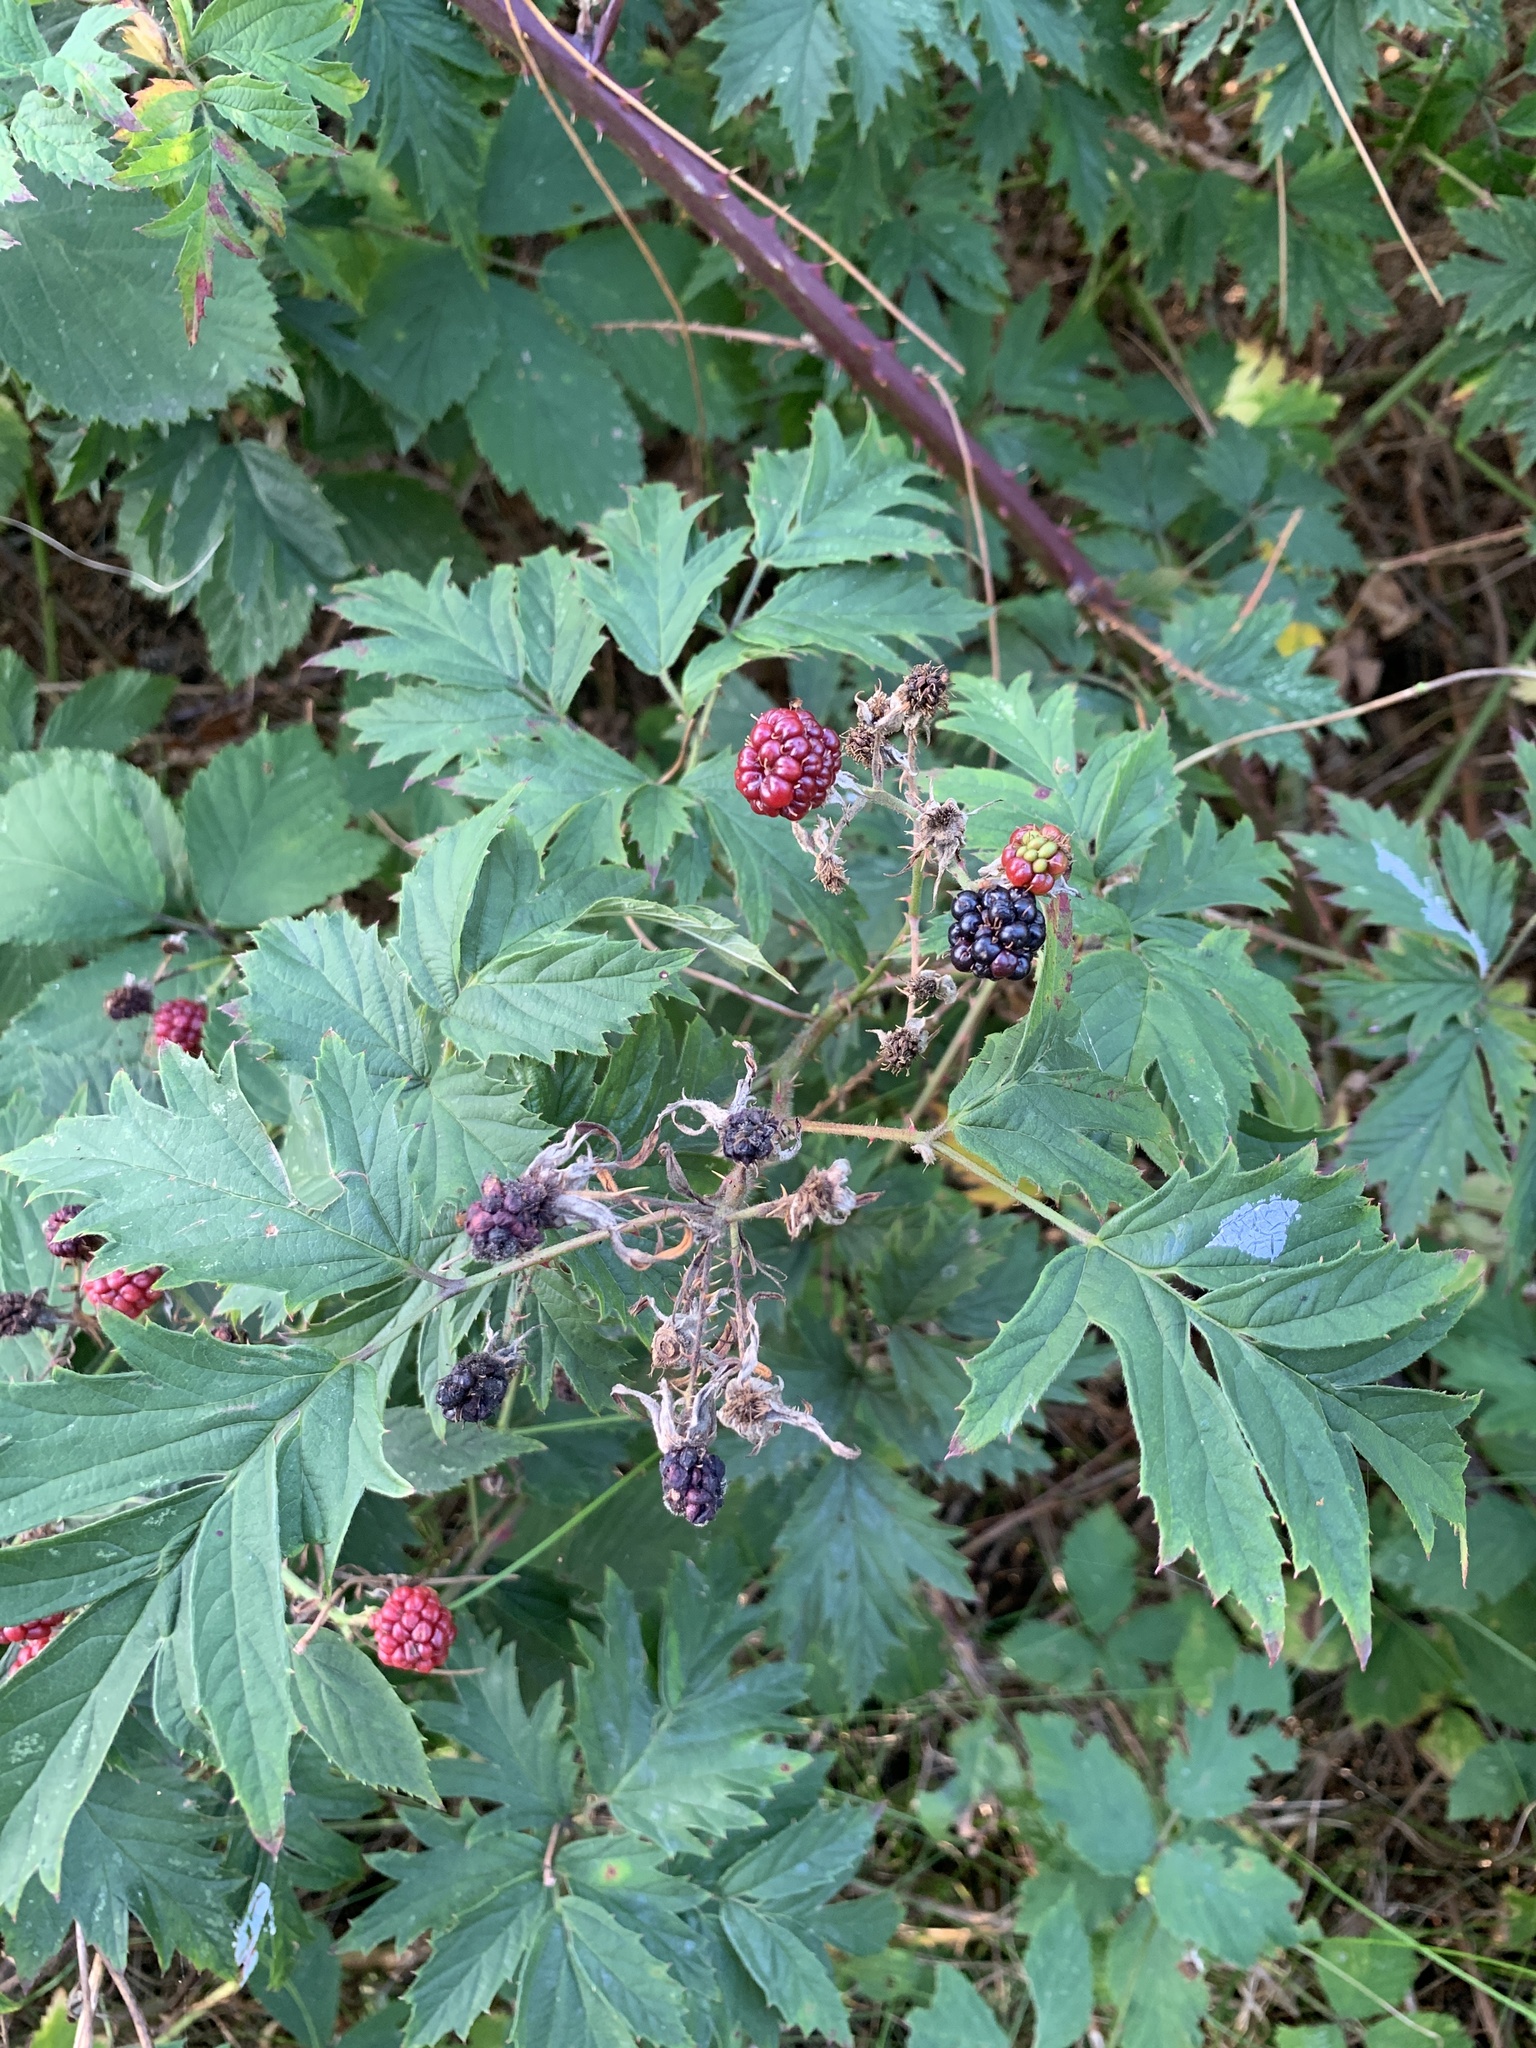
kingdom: Plantae
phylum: Tracheophyta
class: Magnoliopsida
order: Rosales
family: Rosaceae
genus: Rubus
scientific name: Rubus laciniatus
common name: Evergreen blackberry
